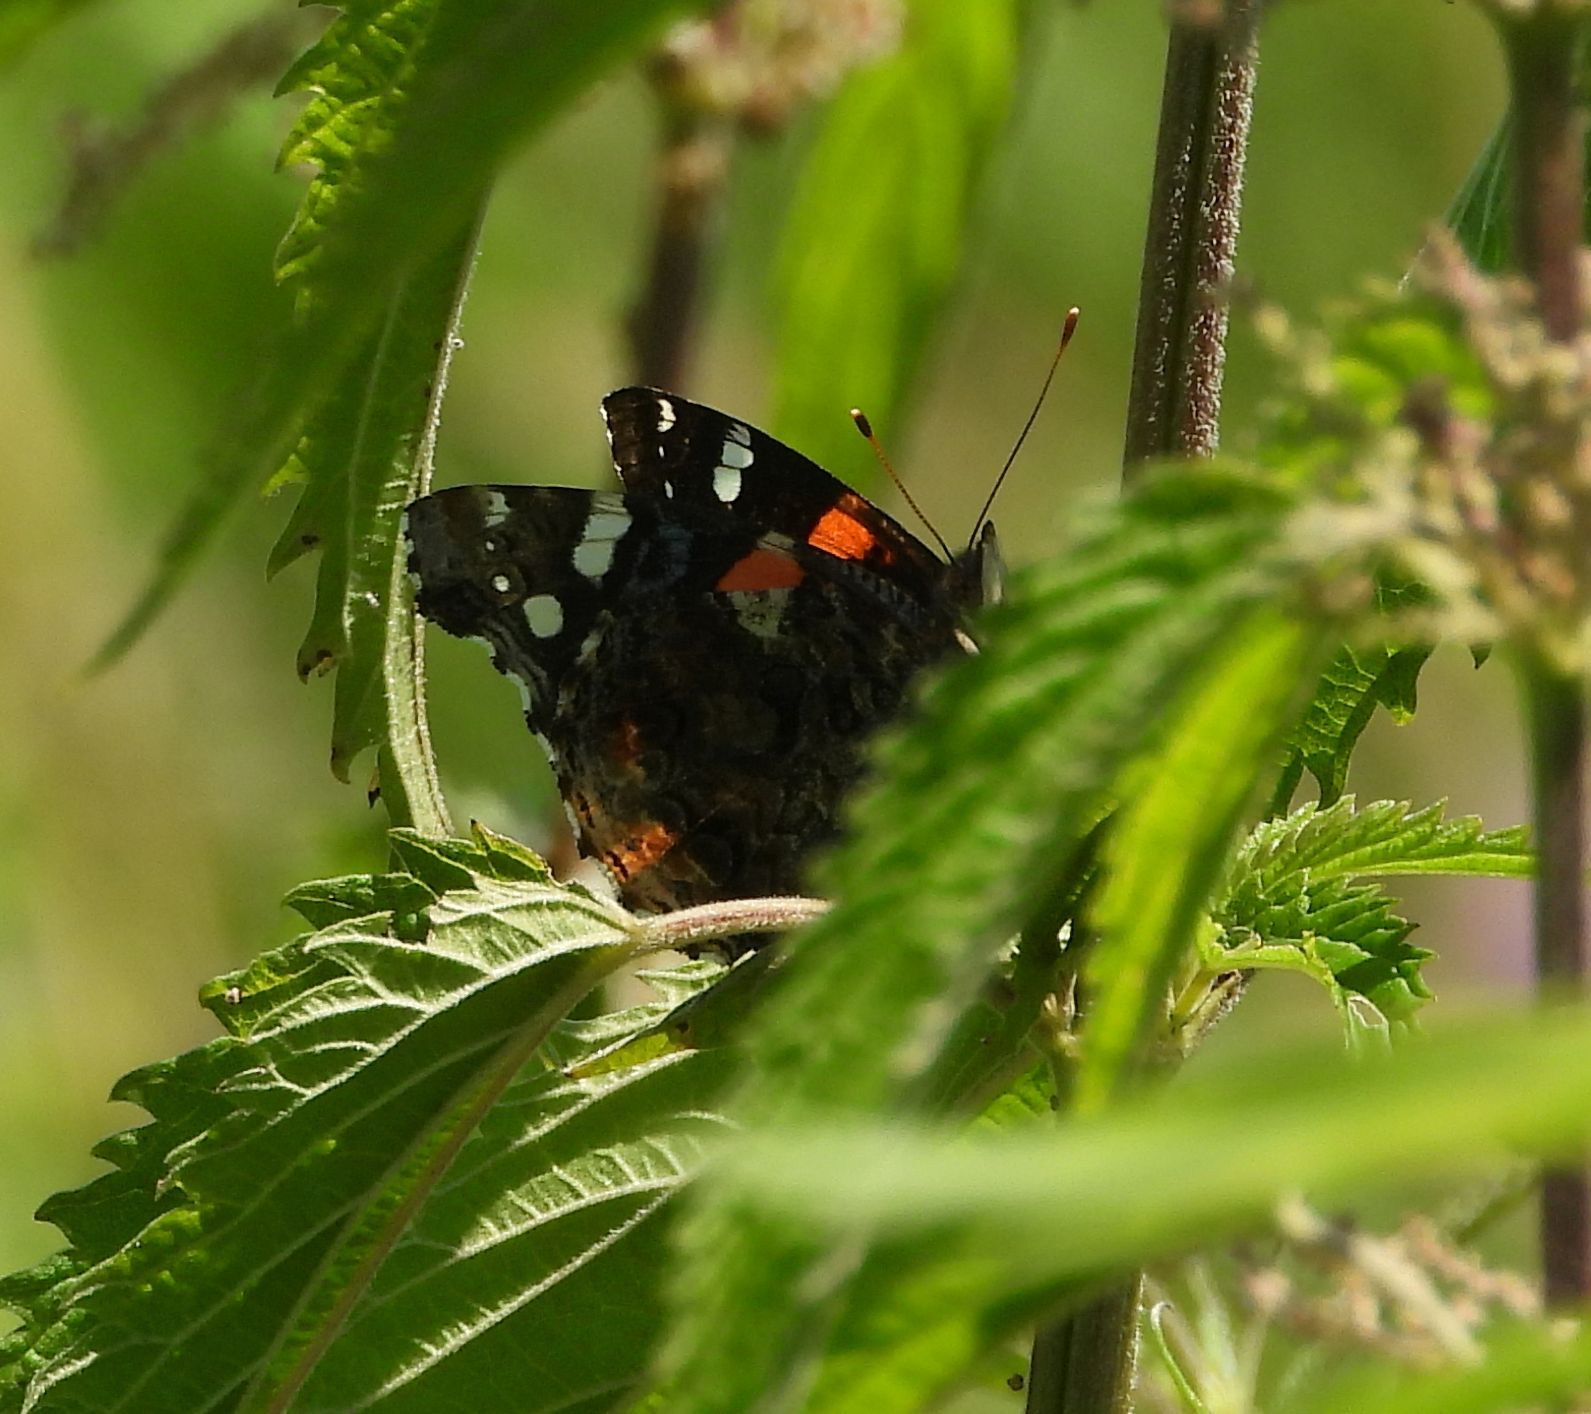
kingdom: Animalia
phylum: Arthropoda
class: Insecta
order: Lepidoptera
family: Nymphalidae
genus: Vanessa
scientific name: Vanessa atalanta
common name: Red admiral
